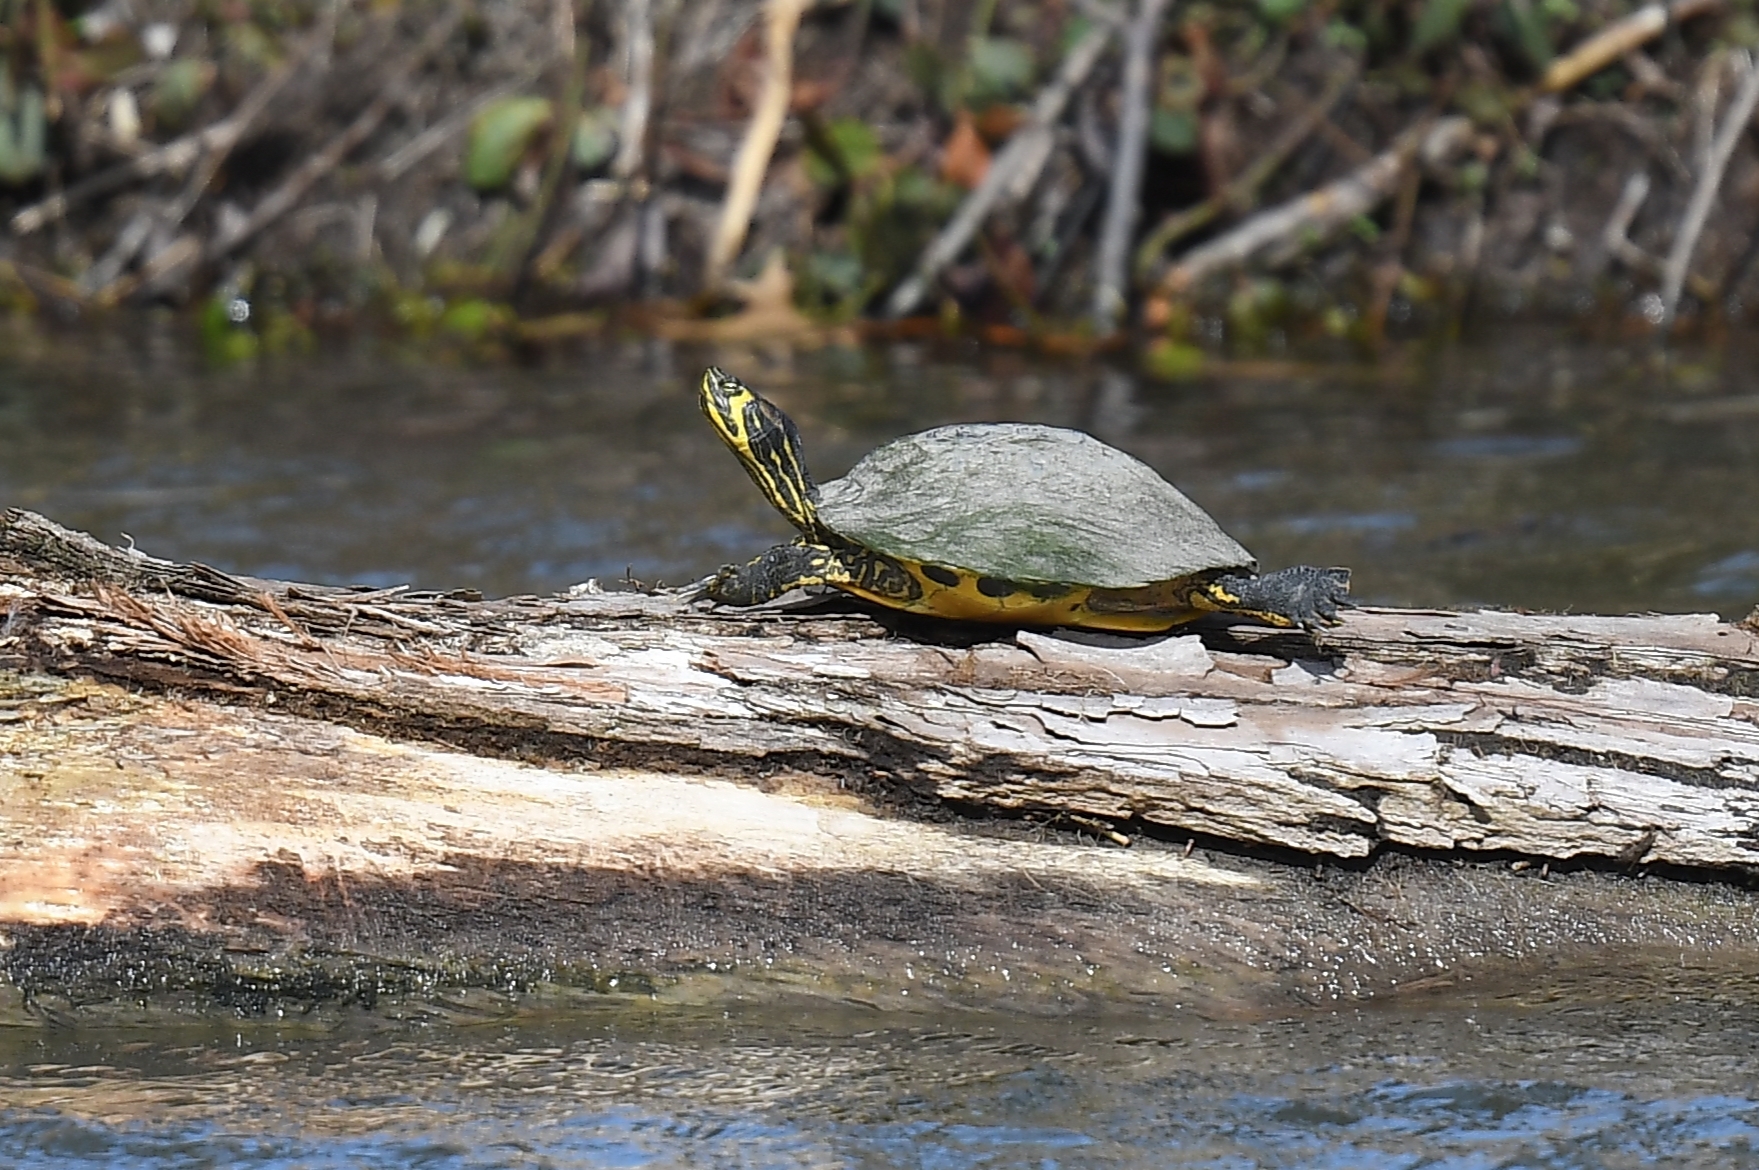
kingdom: Animalia
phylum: Chordata
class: Testudines
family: Emydidae
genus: Trachemys
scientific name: Trachemys scripta
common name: Slider
